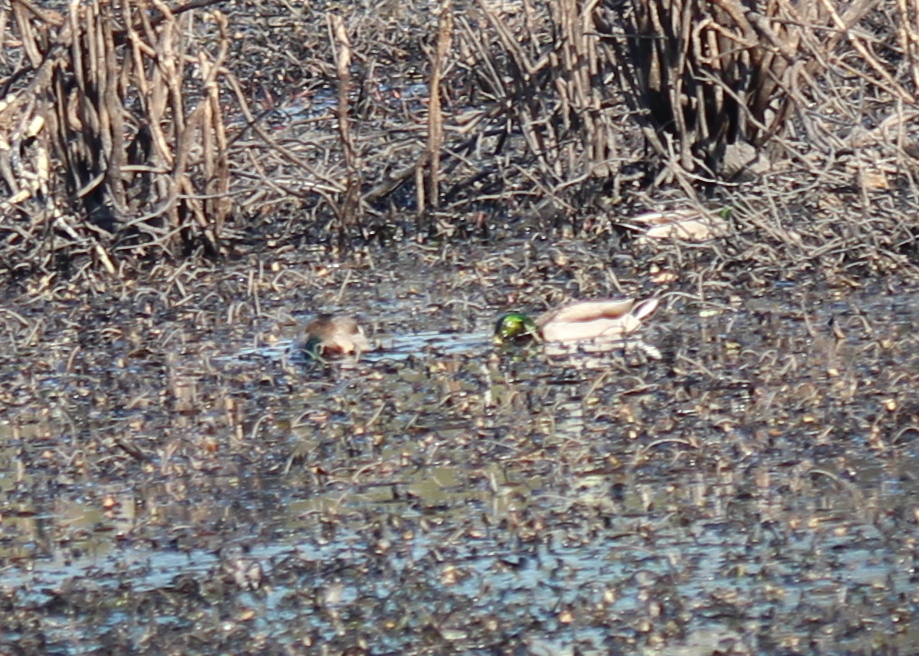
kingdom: Animalia
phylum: Chordata
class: Aves
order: Anseriformes
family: Anatidae
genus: Anas
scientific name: Anas platyrhynchos
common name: Mallard
